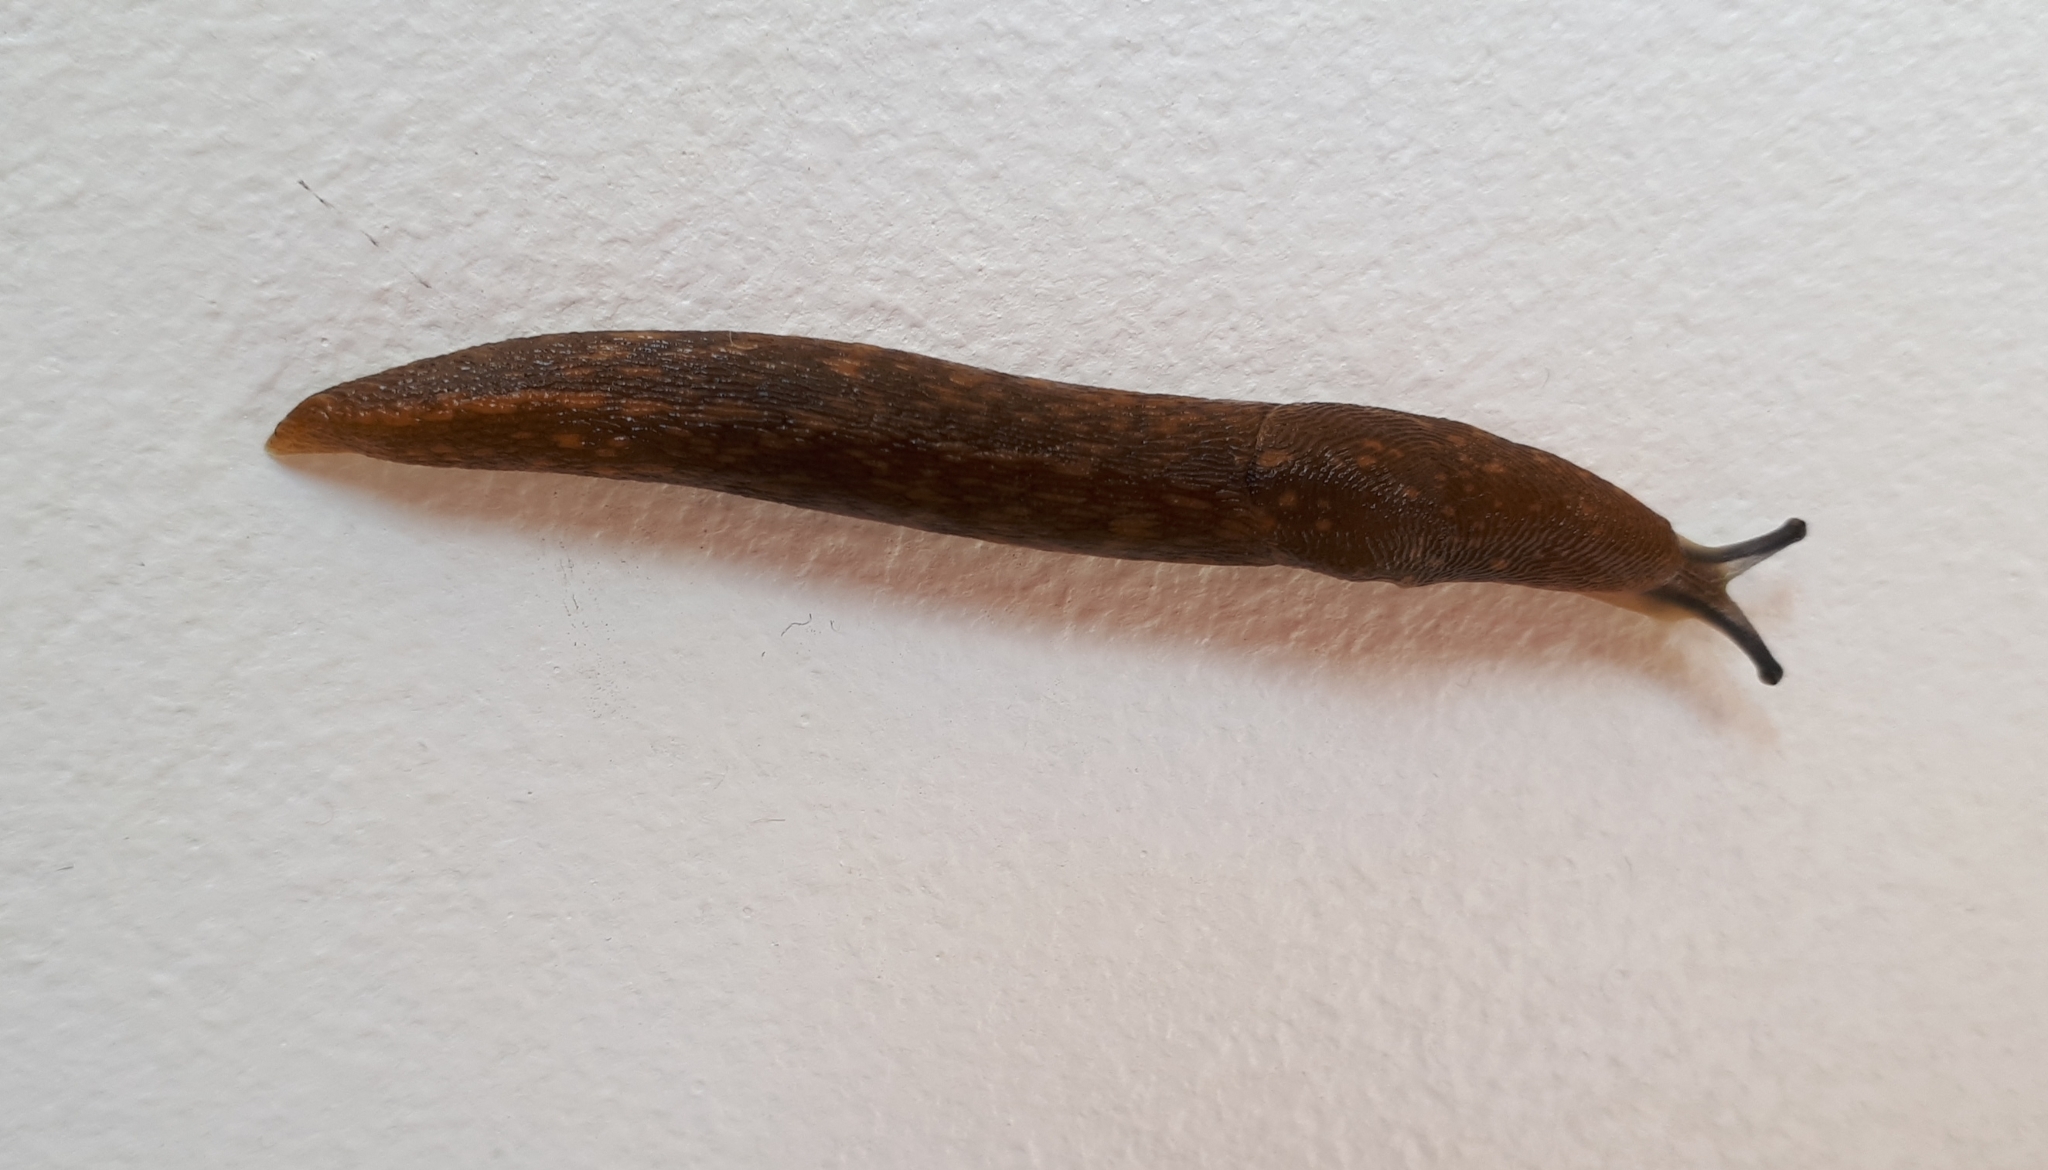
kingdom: Animalia
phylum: Mollusca
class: Gastropoda
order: Stylommatophora
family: Limacidae
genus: Limacus
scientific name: Limacus flavus
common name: Yellow gardenslug
